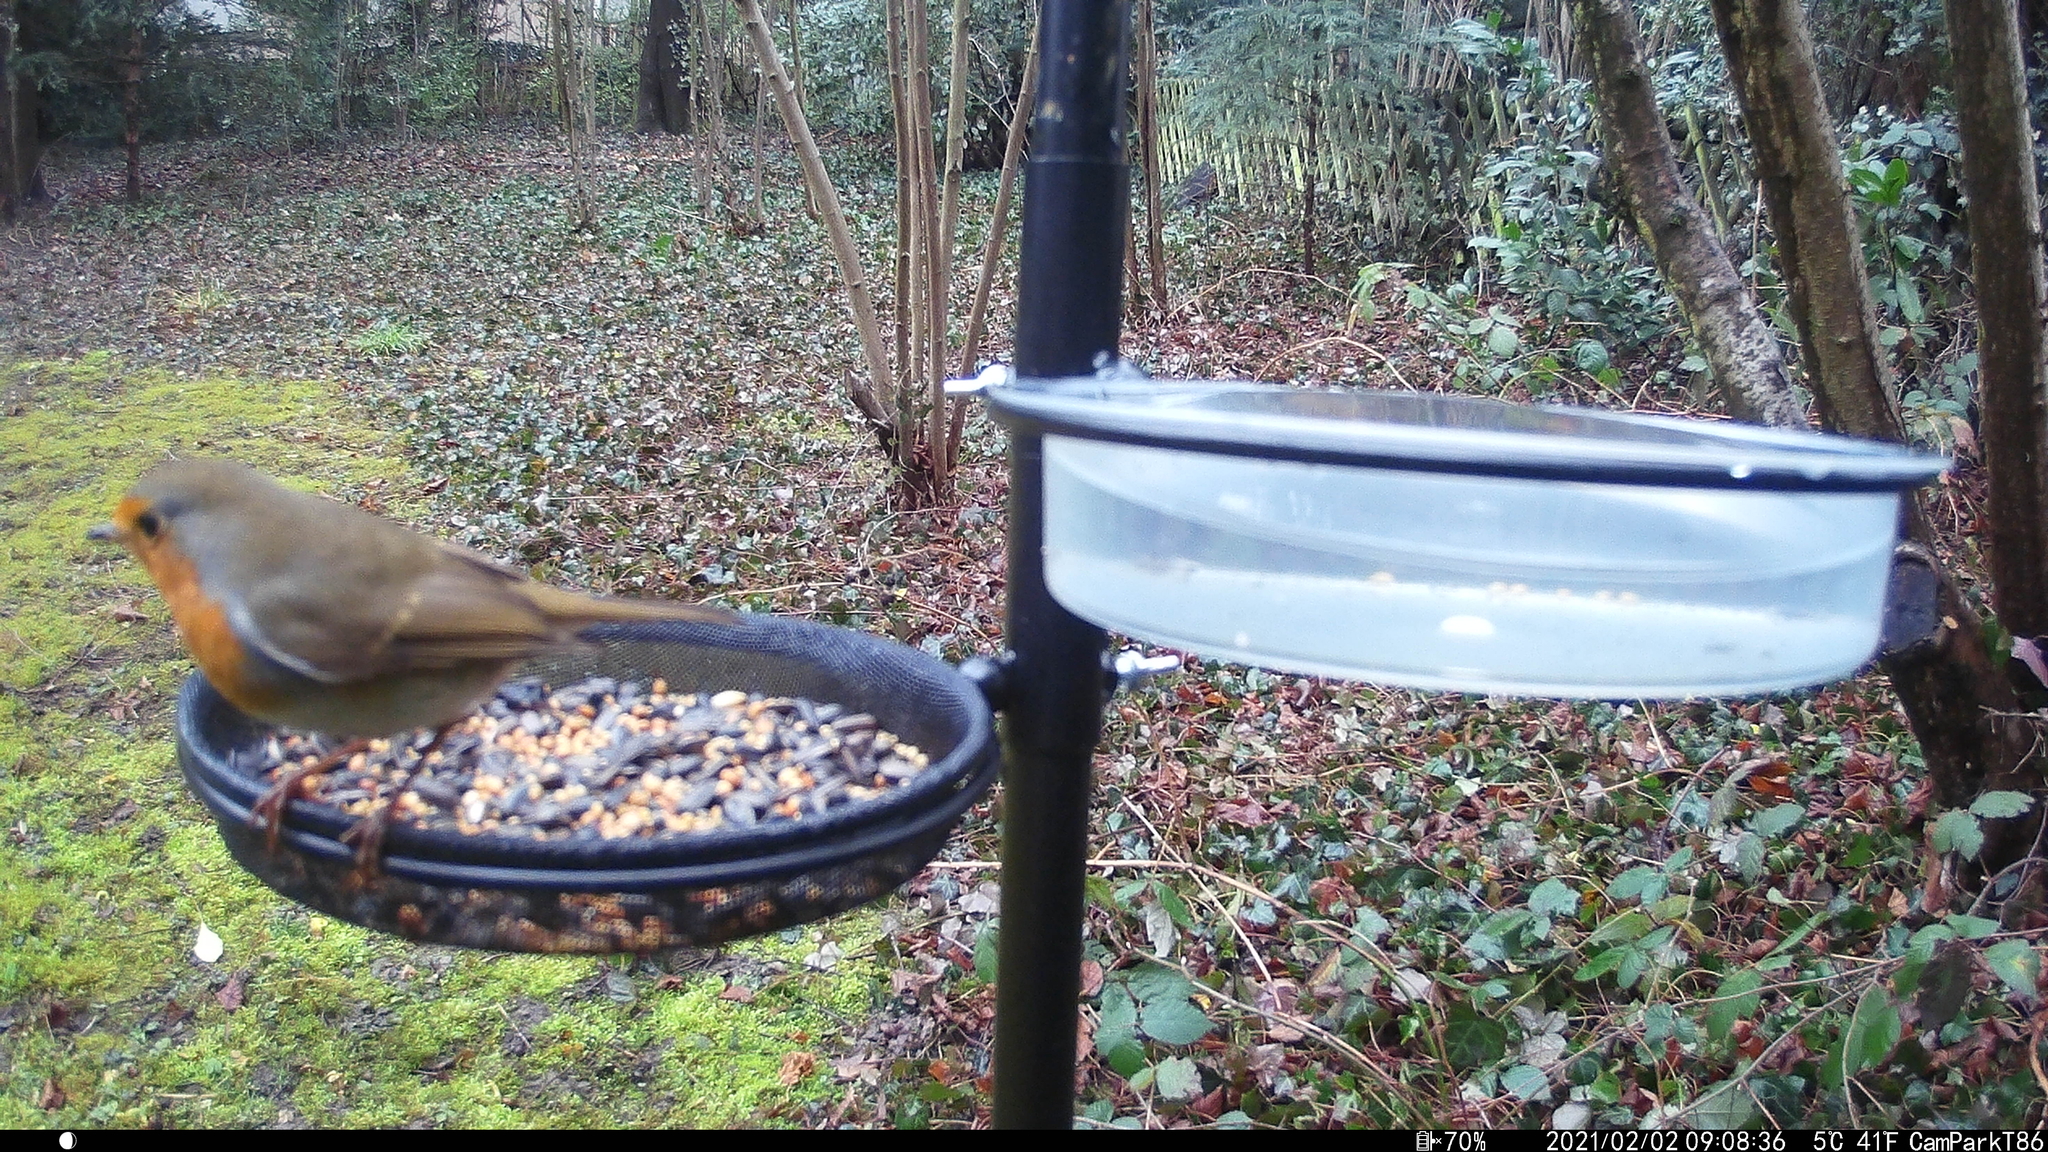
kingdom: Animalia
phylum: Chordata
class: Aves
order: Passeriformes
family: Muscicapidae
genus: Erithacus
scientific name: Erithacus rubecula
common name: European robin
